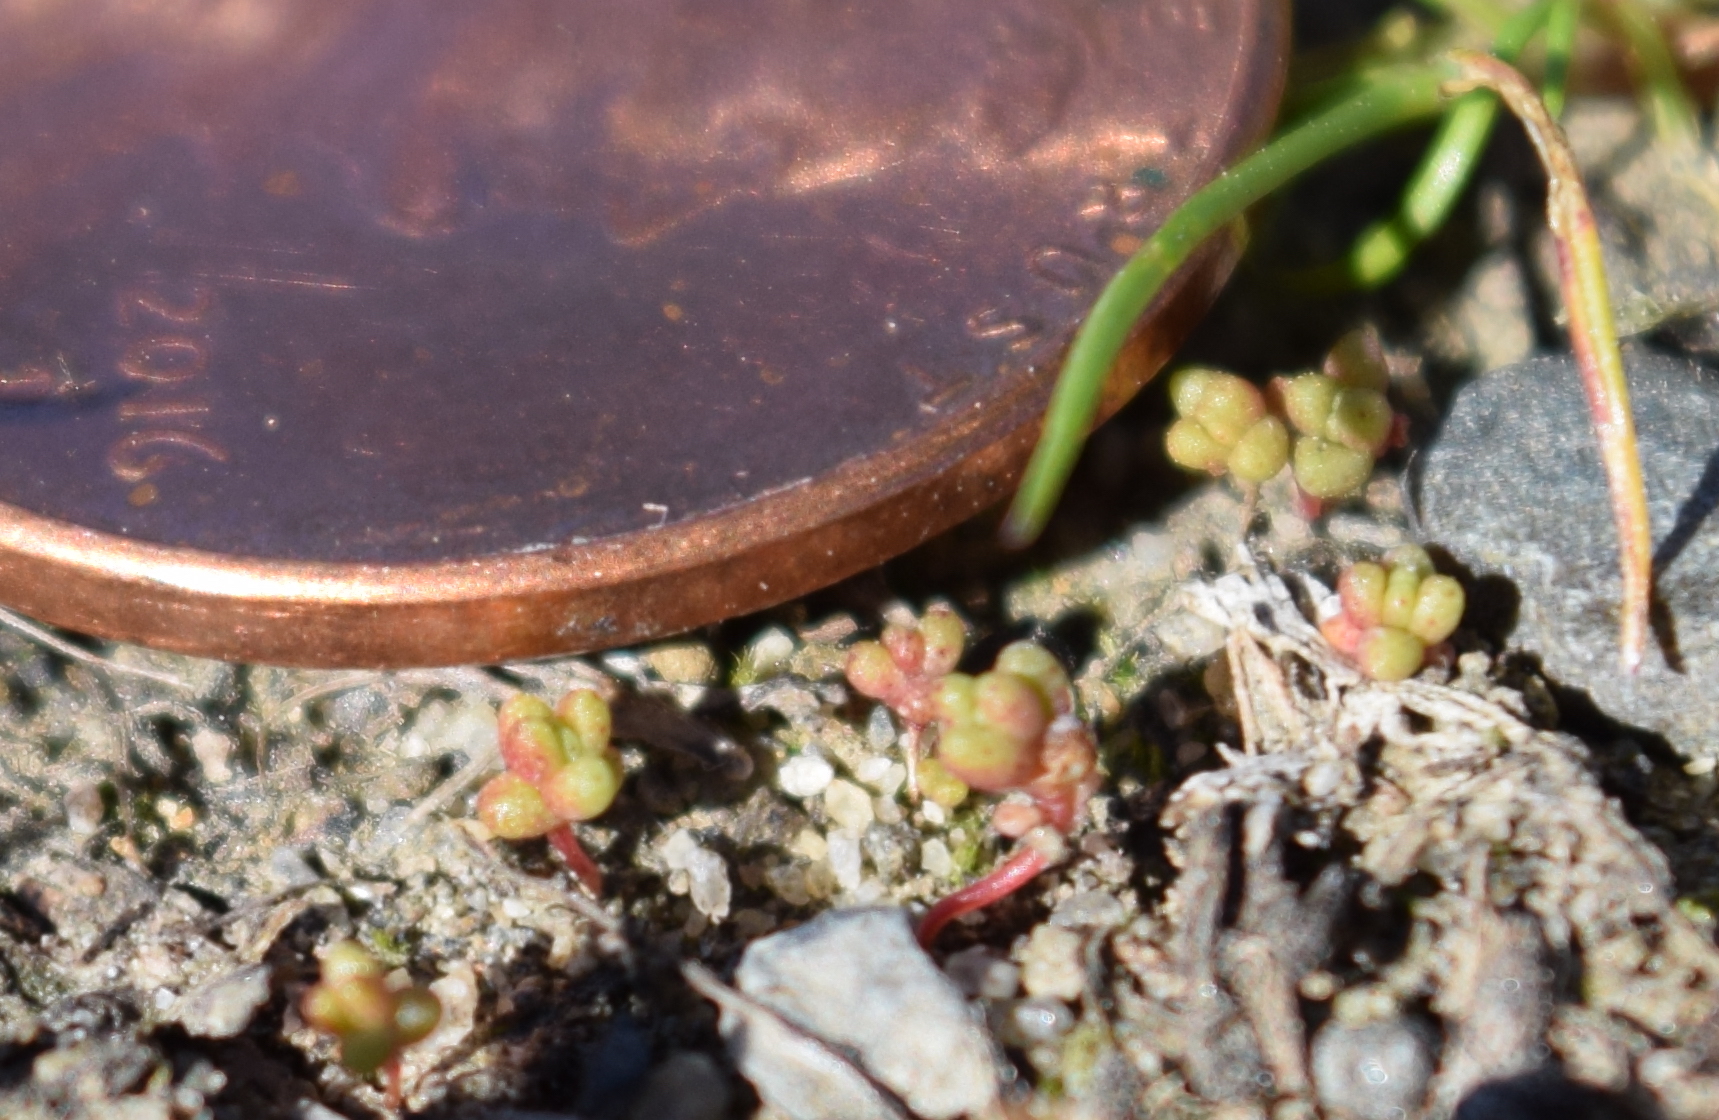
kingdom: Plantae
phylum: Tracheophyta
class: Magnoliopsida
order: Saxifragales
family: Crassulaceae
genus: Crassula
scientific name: Crassula connata
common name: Erect pygmyweed
